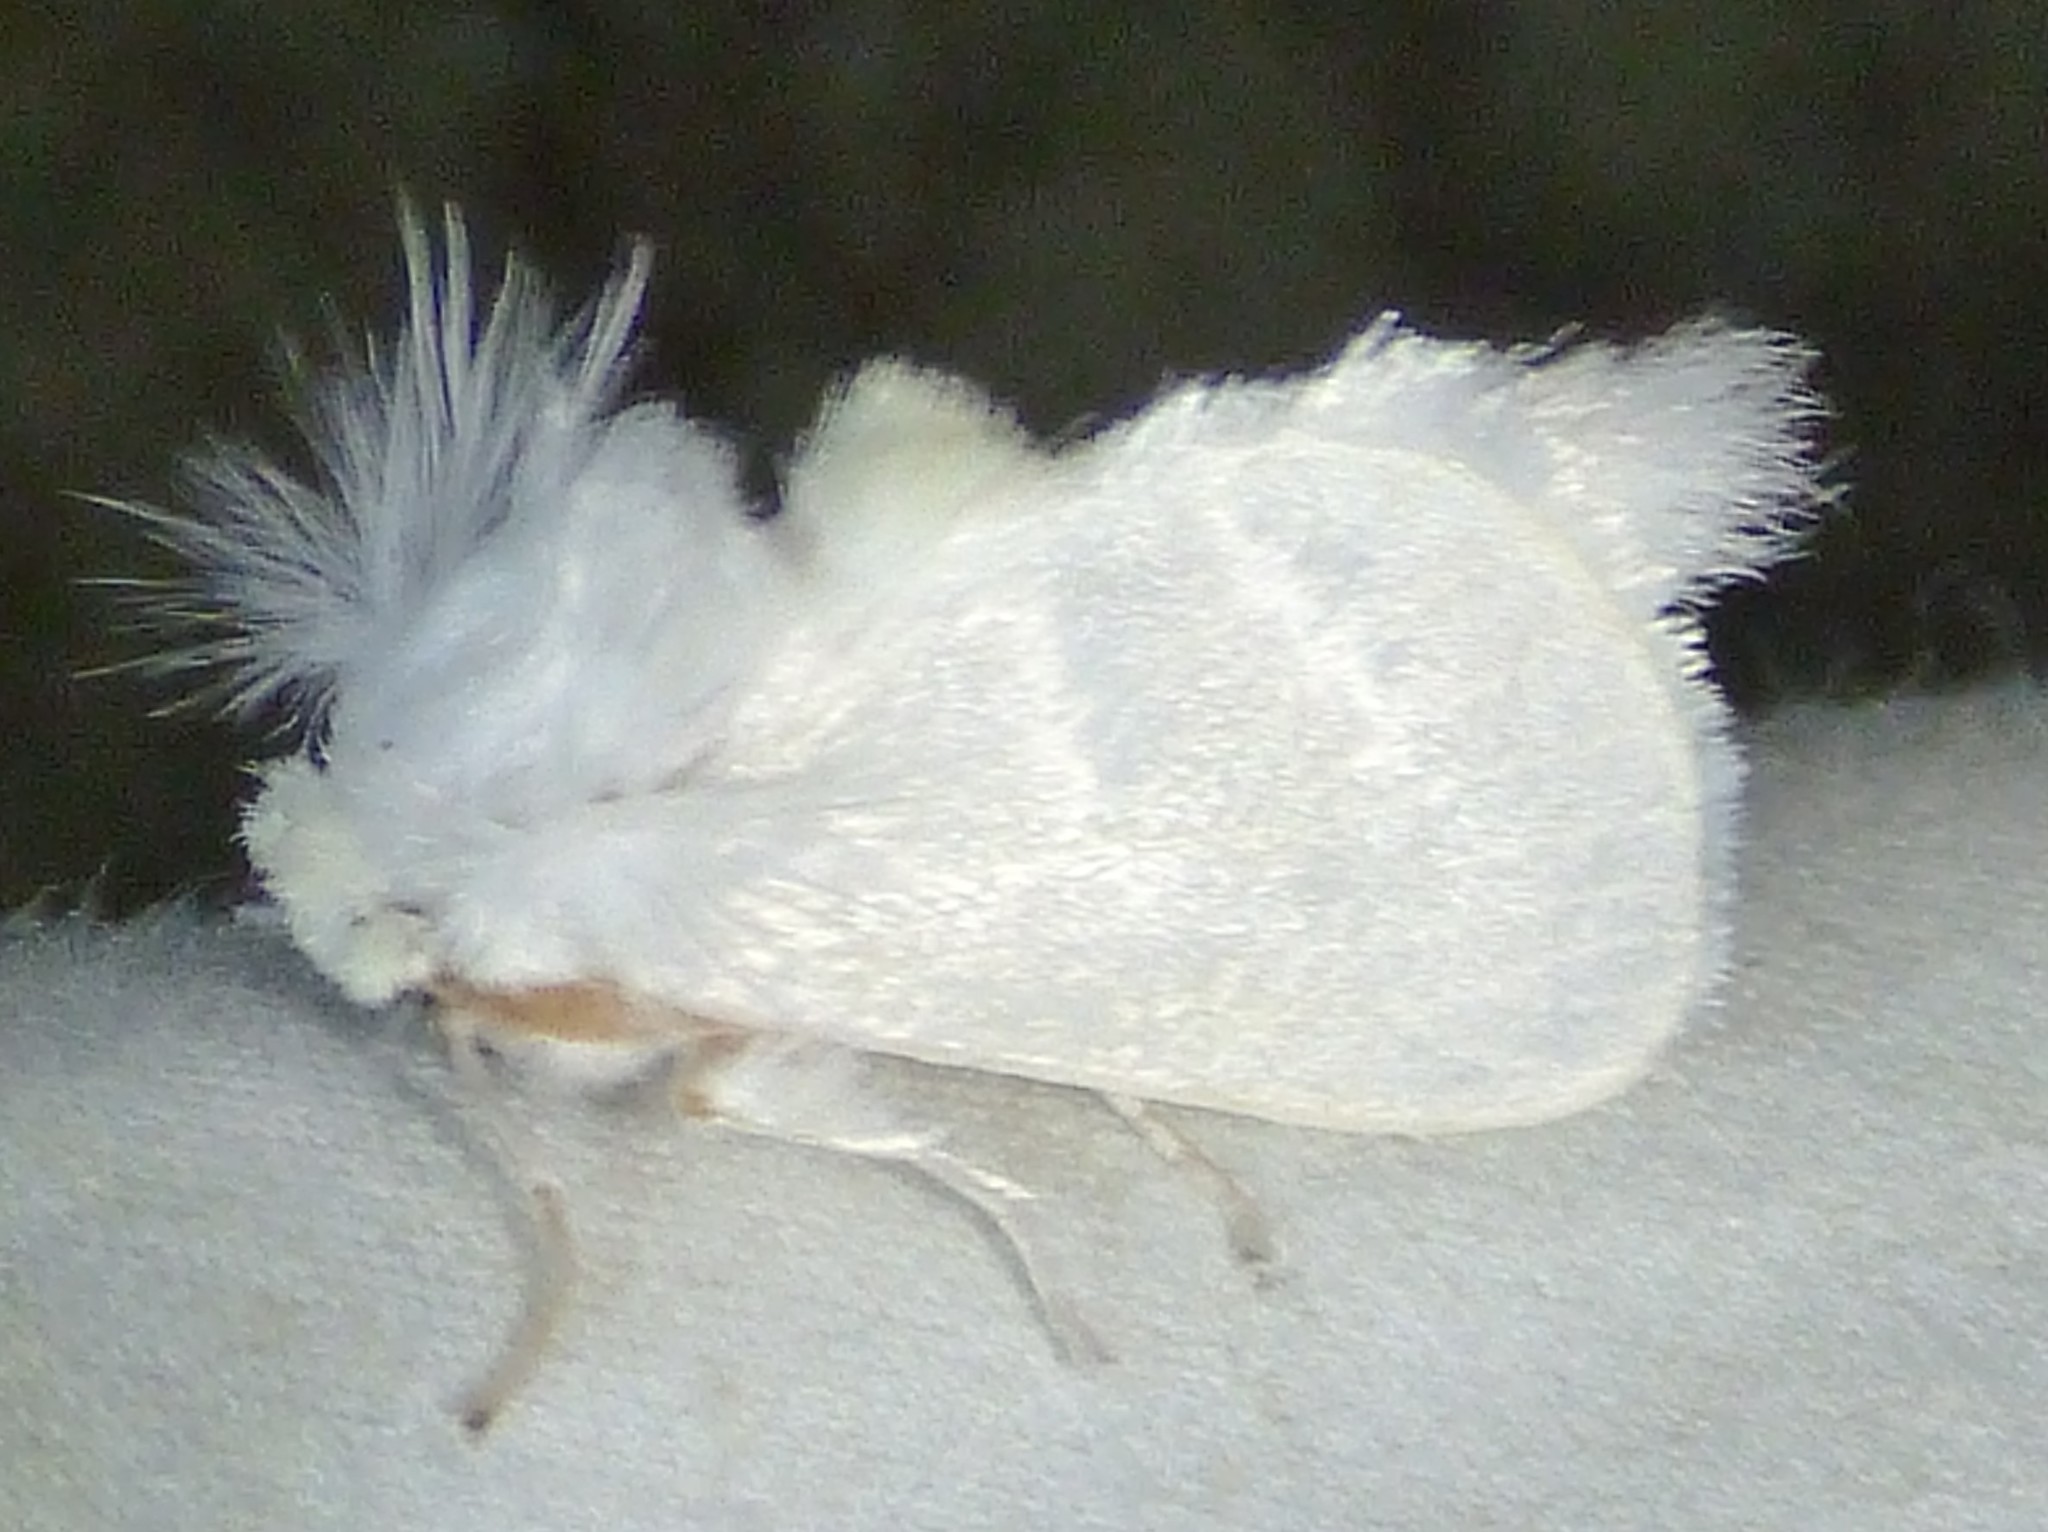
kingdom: Animalia
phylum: Arthropoda
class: Insecta
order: Lepidoptera
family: Megalopygidae
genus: Norape
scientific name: Norape cretata
